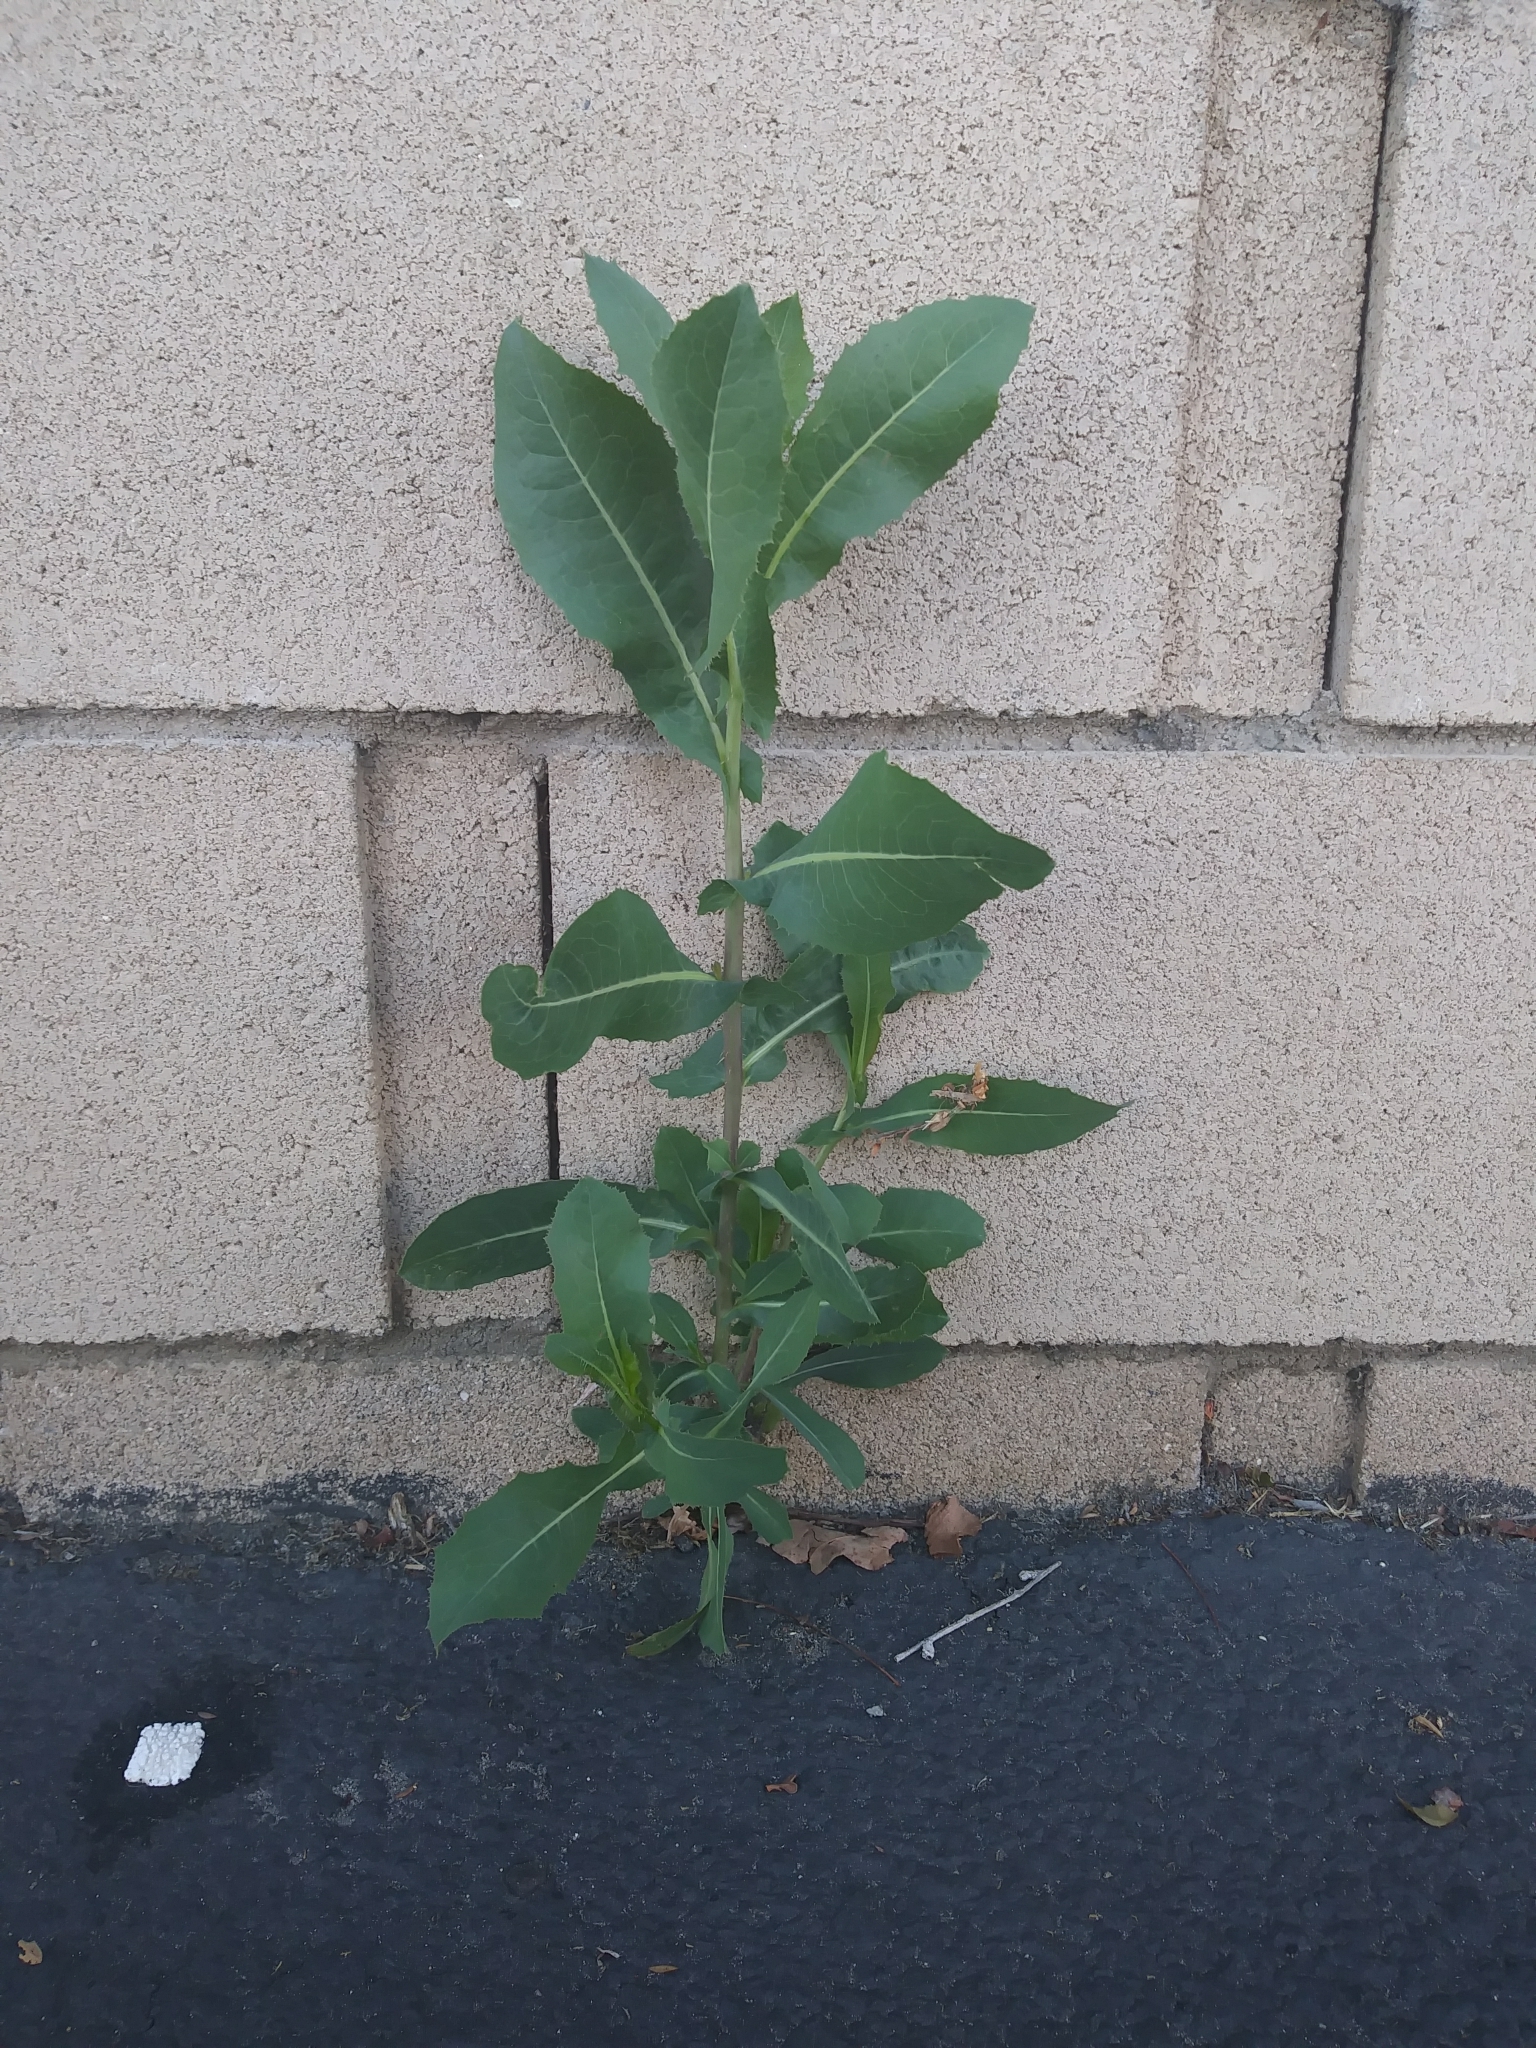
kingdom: Plantae
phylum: Tracheophyta
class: Magnoliopsida
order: Asterales
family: Asteraceae
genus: Lactuca
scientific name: Lactuca serriola
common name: Prickly lettuce
